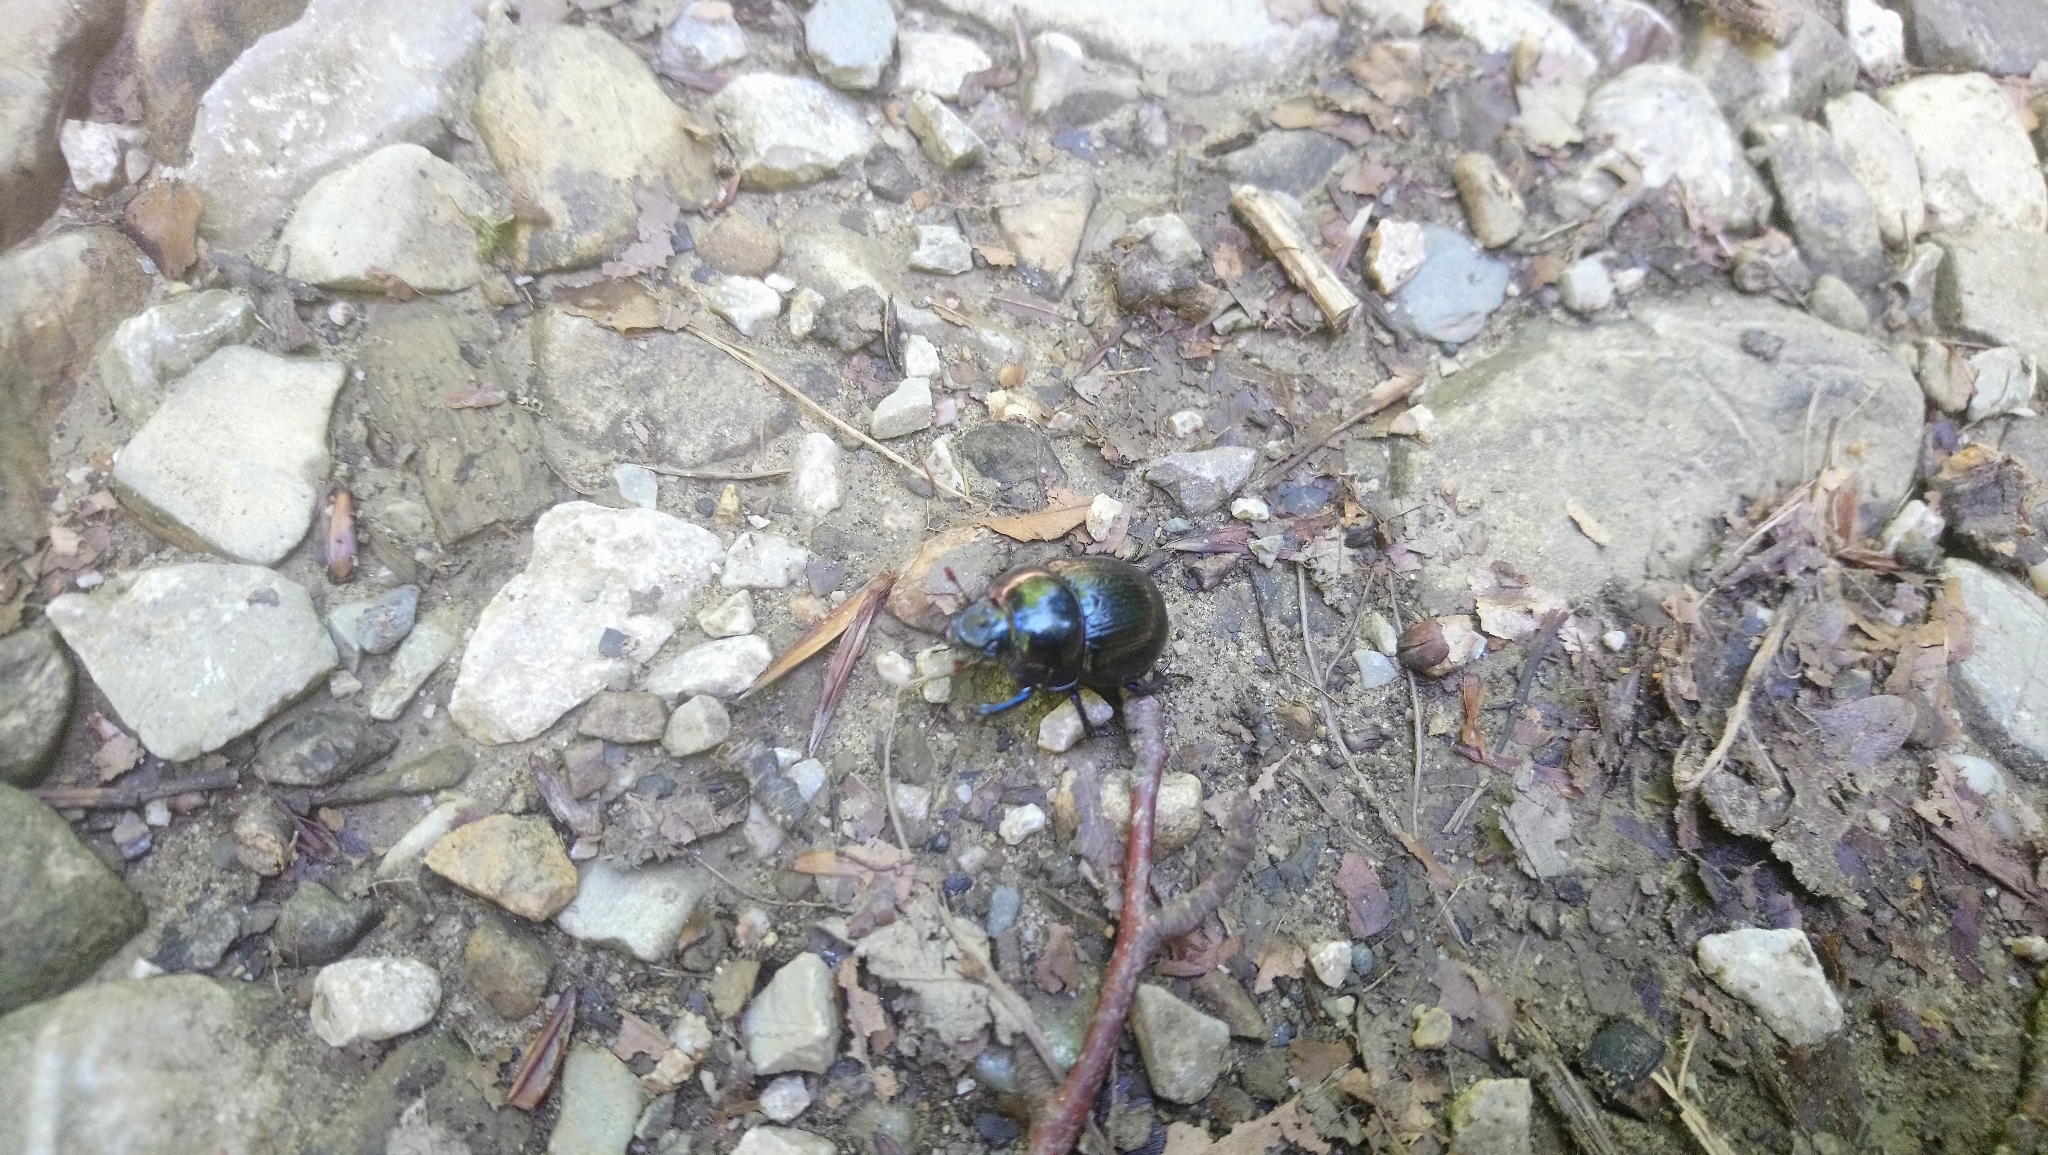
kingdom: Animalia
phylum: Arthropoda
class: Insecta
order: Coleoptera
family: Geotrupidae
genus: Anoplotrupes
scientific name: Anoplotrupes stercorosus
